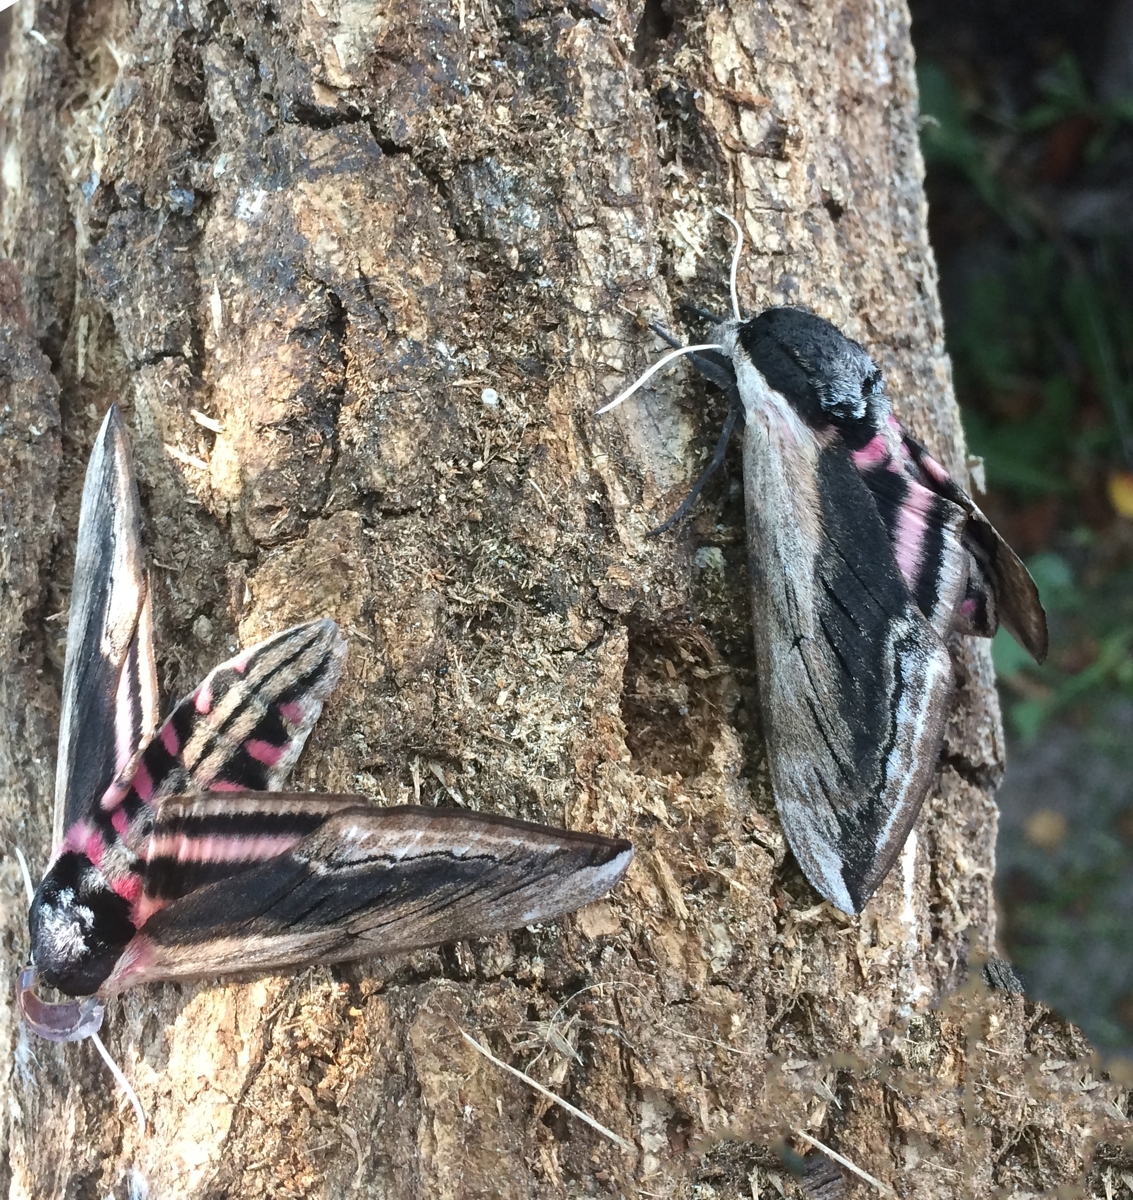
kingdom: Animalia
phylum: Arthropoda
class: Insecta
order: Lepidoptera
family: Sphingidae
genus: Sphinx
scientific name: Sphinx ligustri
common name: Privet hawk-moth
